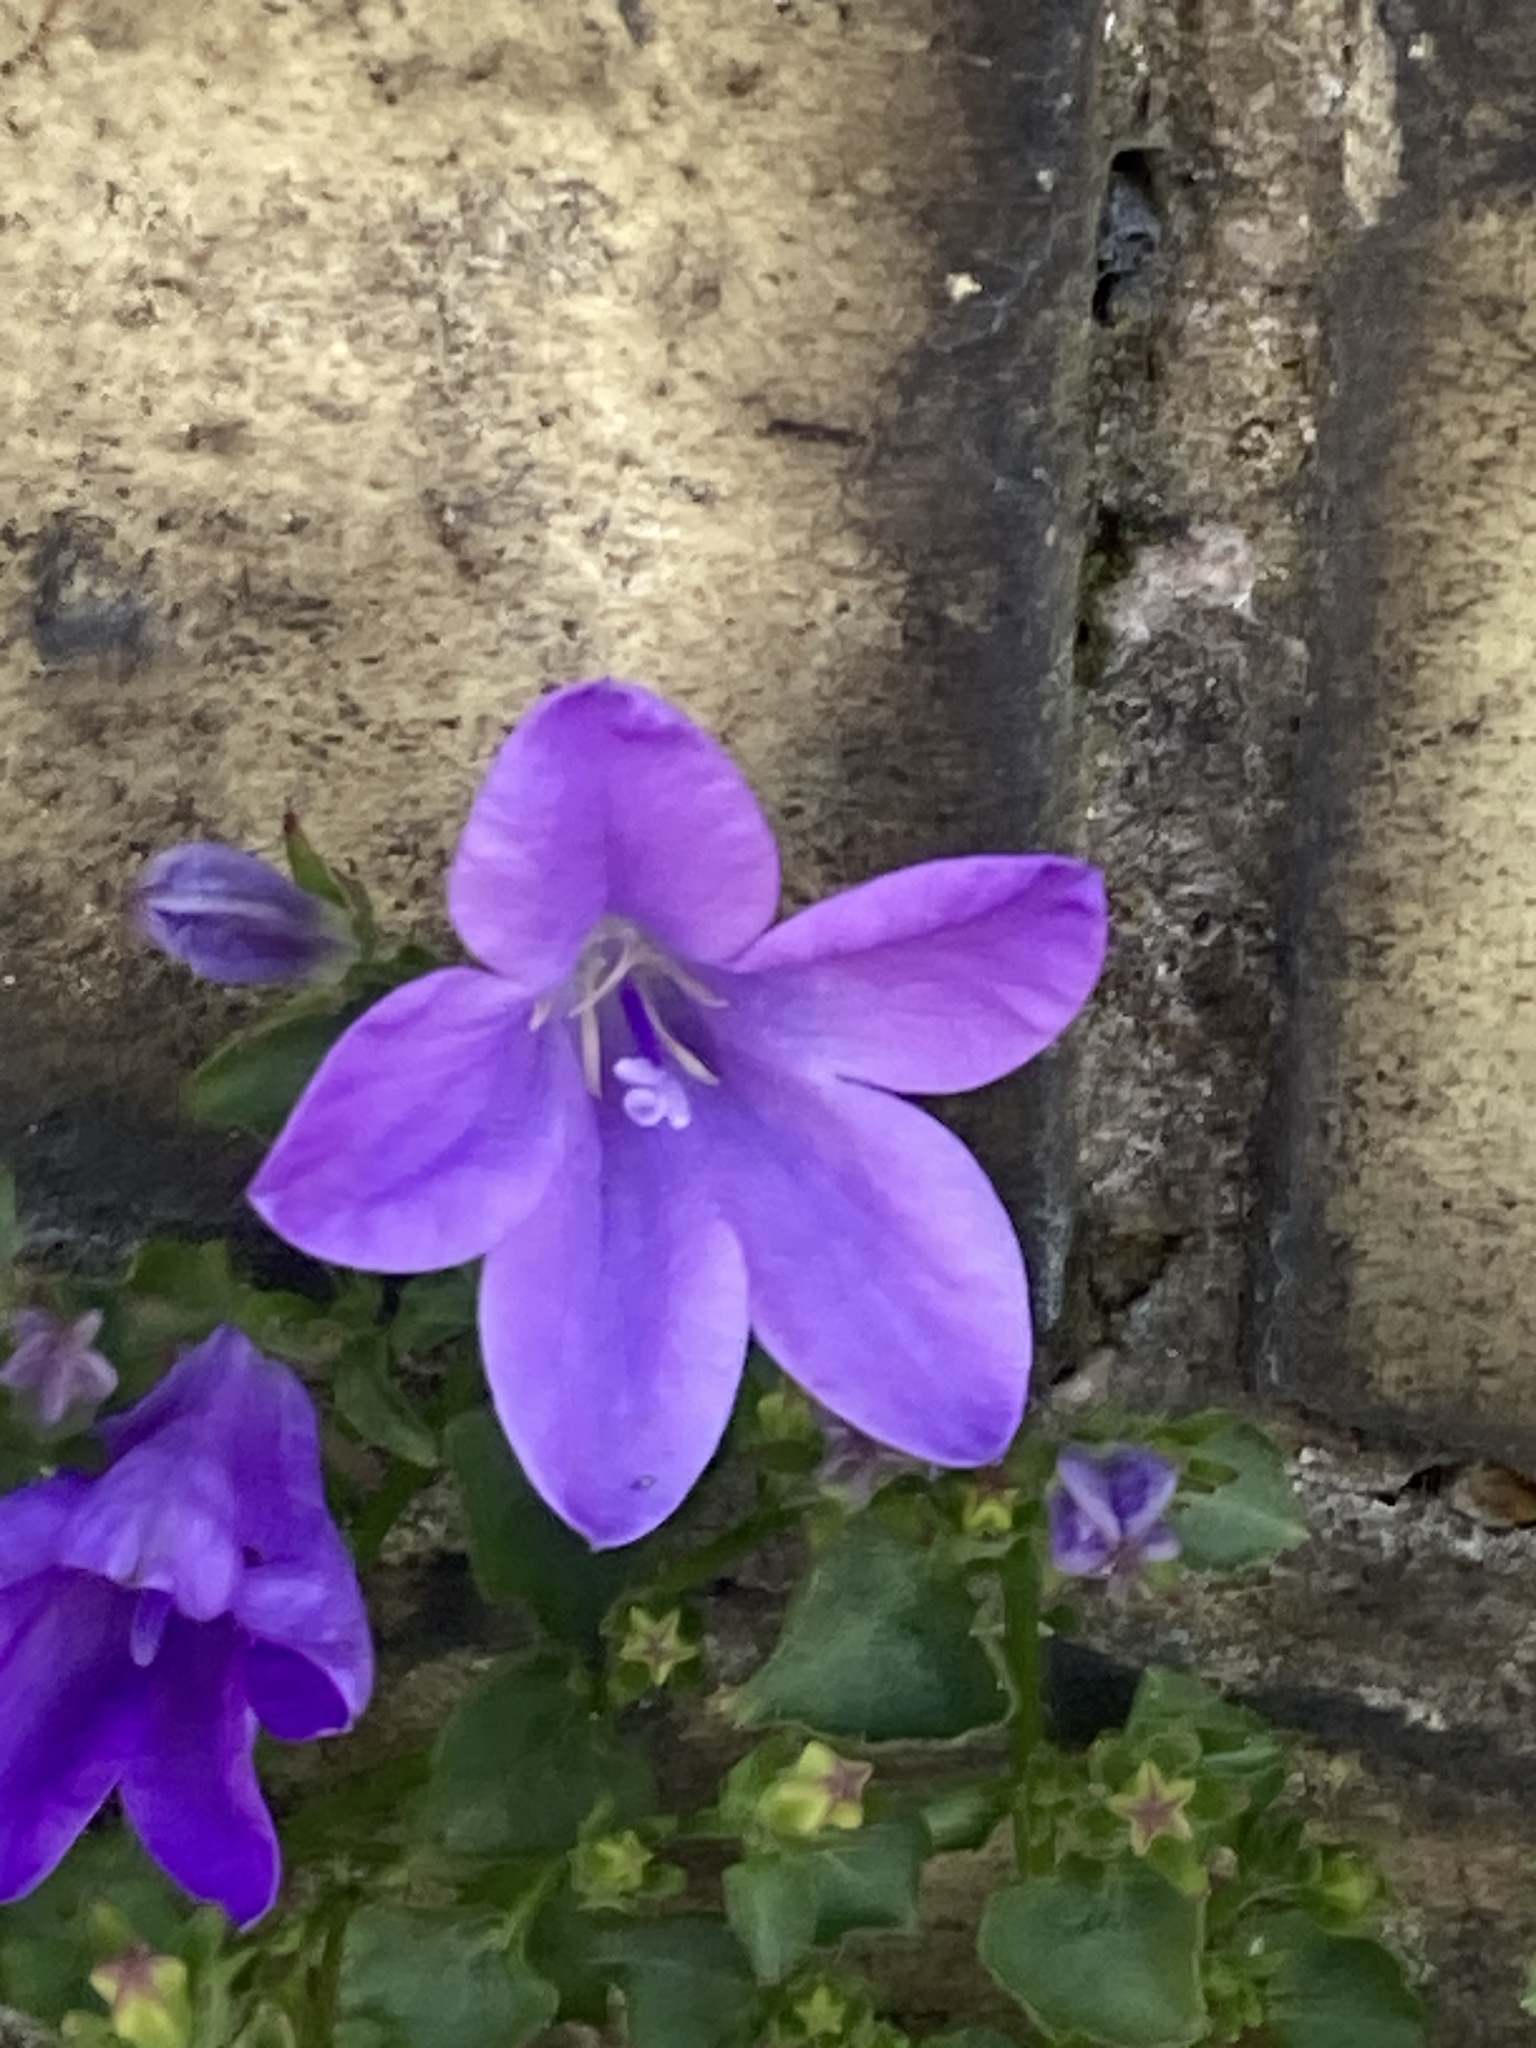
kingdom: Plantae
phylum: Tracheophyta
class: Magnoliopsida
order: Asterales
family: Campanulaceae
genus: Campanula
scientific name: Campanula portenschlagiana
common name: Adria bellflower
